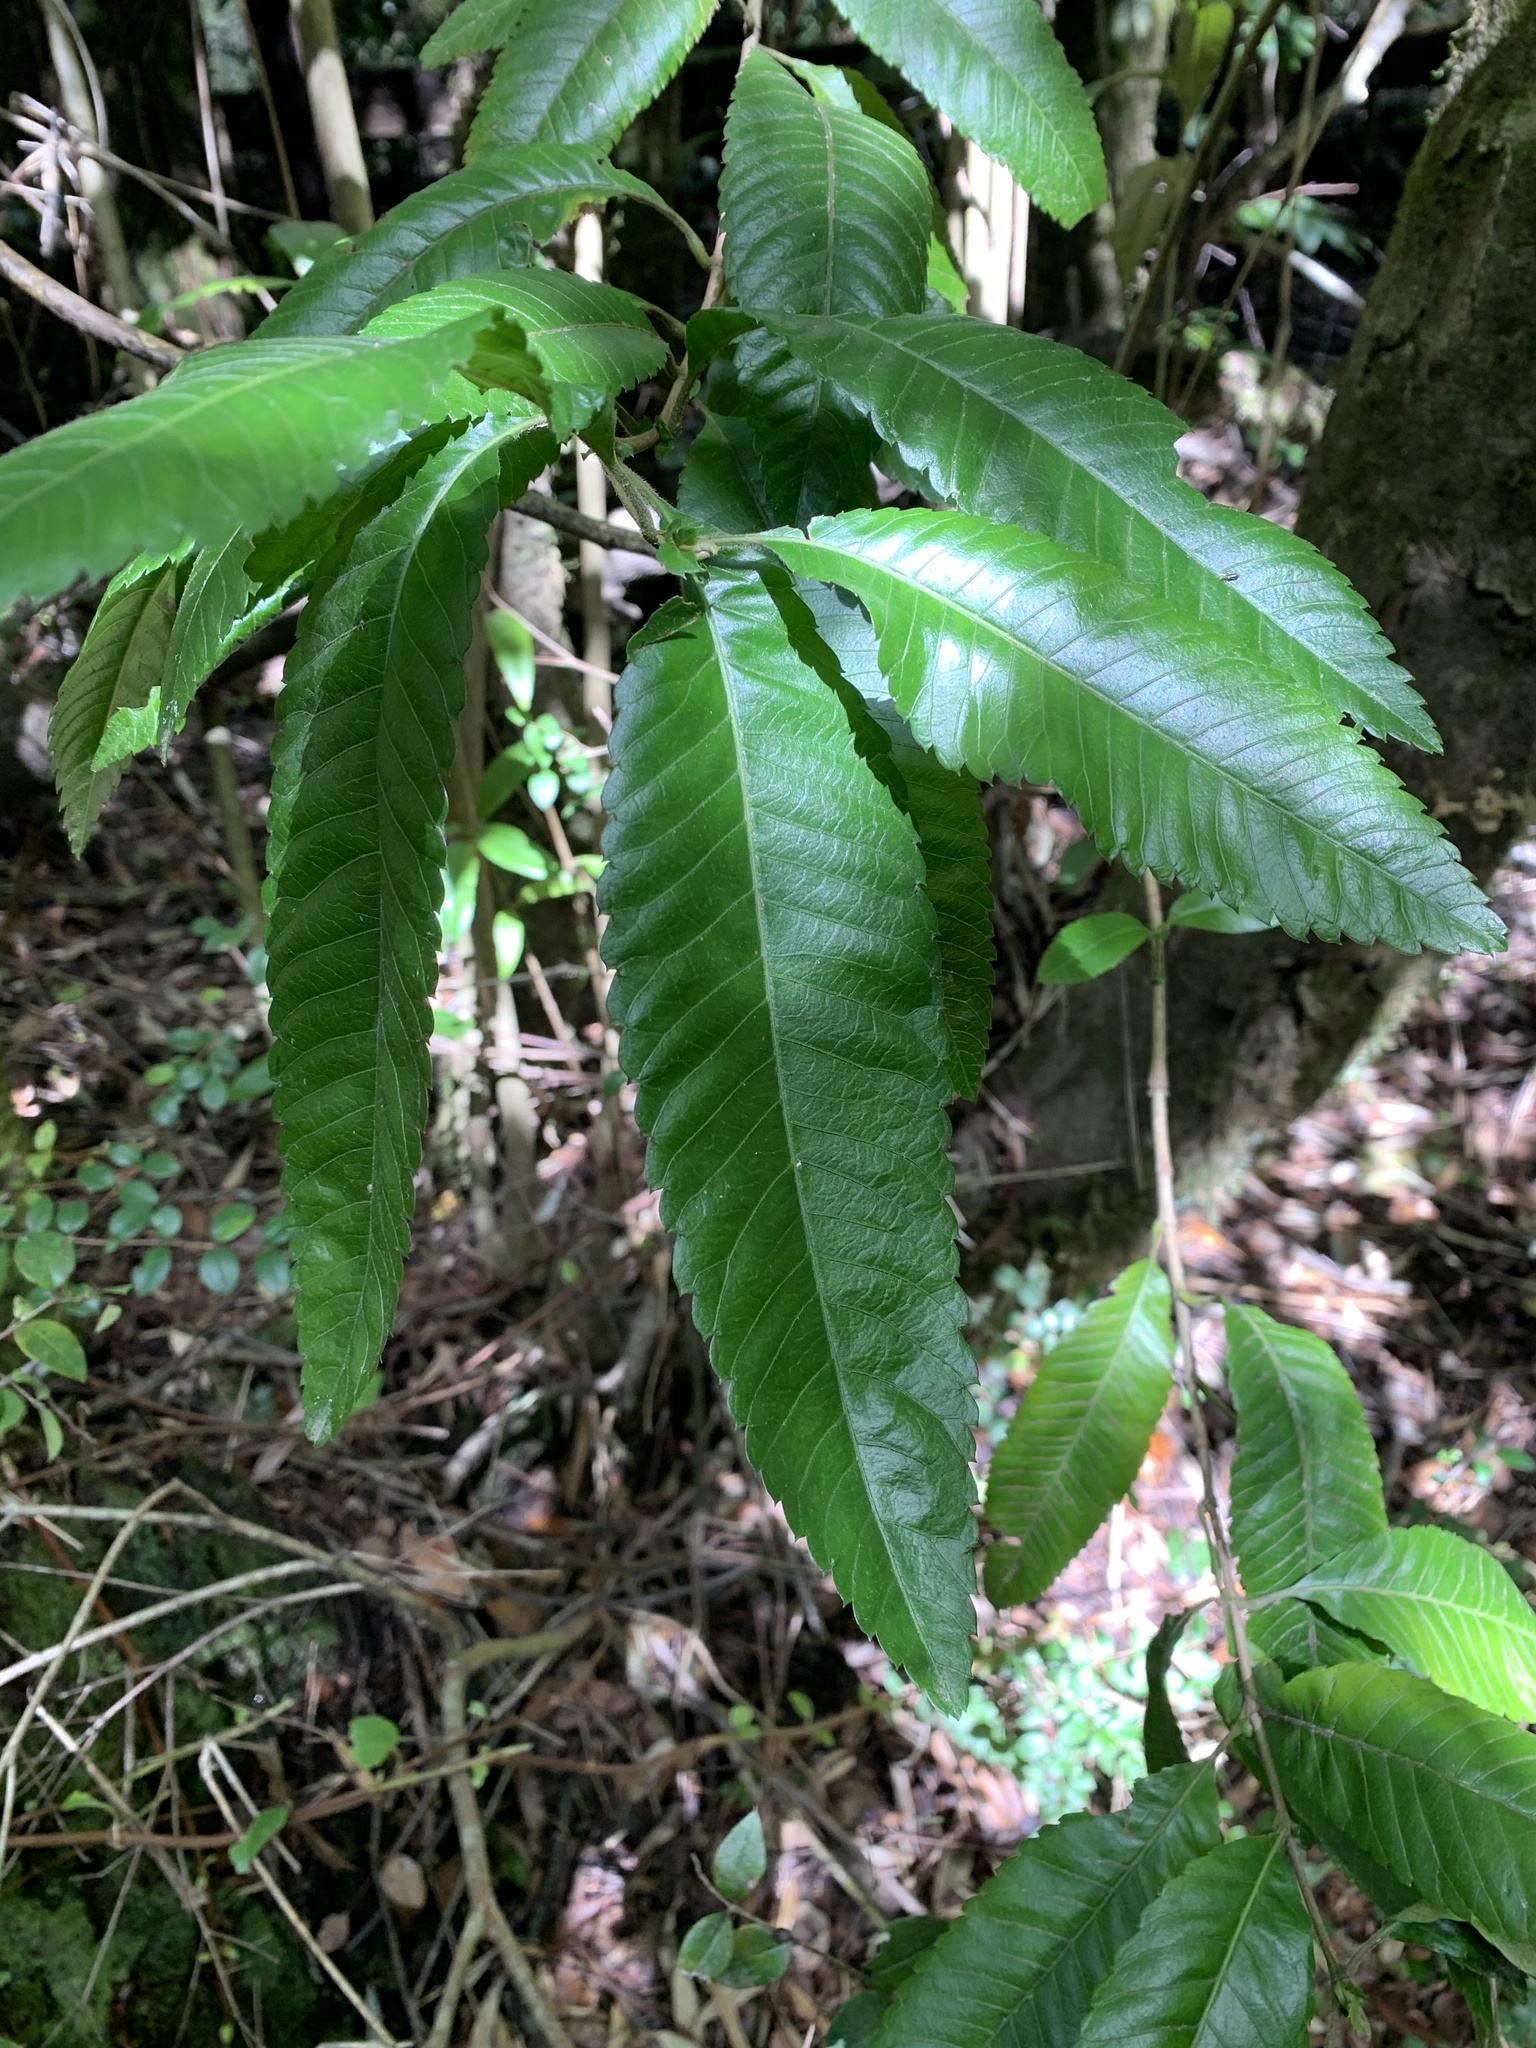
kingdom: Plantae
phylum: Tracheophyta
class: Magnoliopsida
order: Oxalidales
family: Cunoniaceae
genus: Caldcluvia
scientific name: Caldcluvia paniculata
